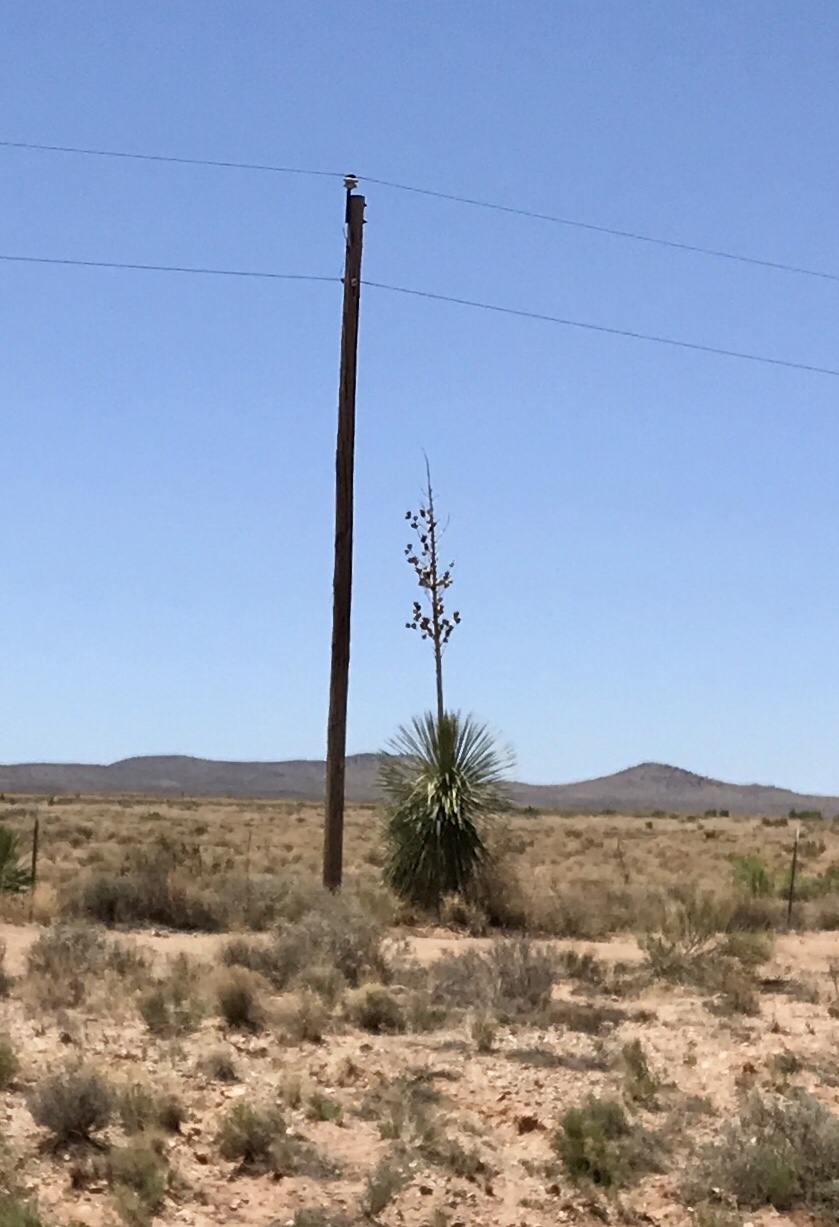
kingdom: Plantae
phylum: Tracheophyta
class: Liliopsida
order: Asparagales
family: Asparagaceae
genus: Yucca
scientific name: Yucca elata
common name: Palmella
